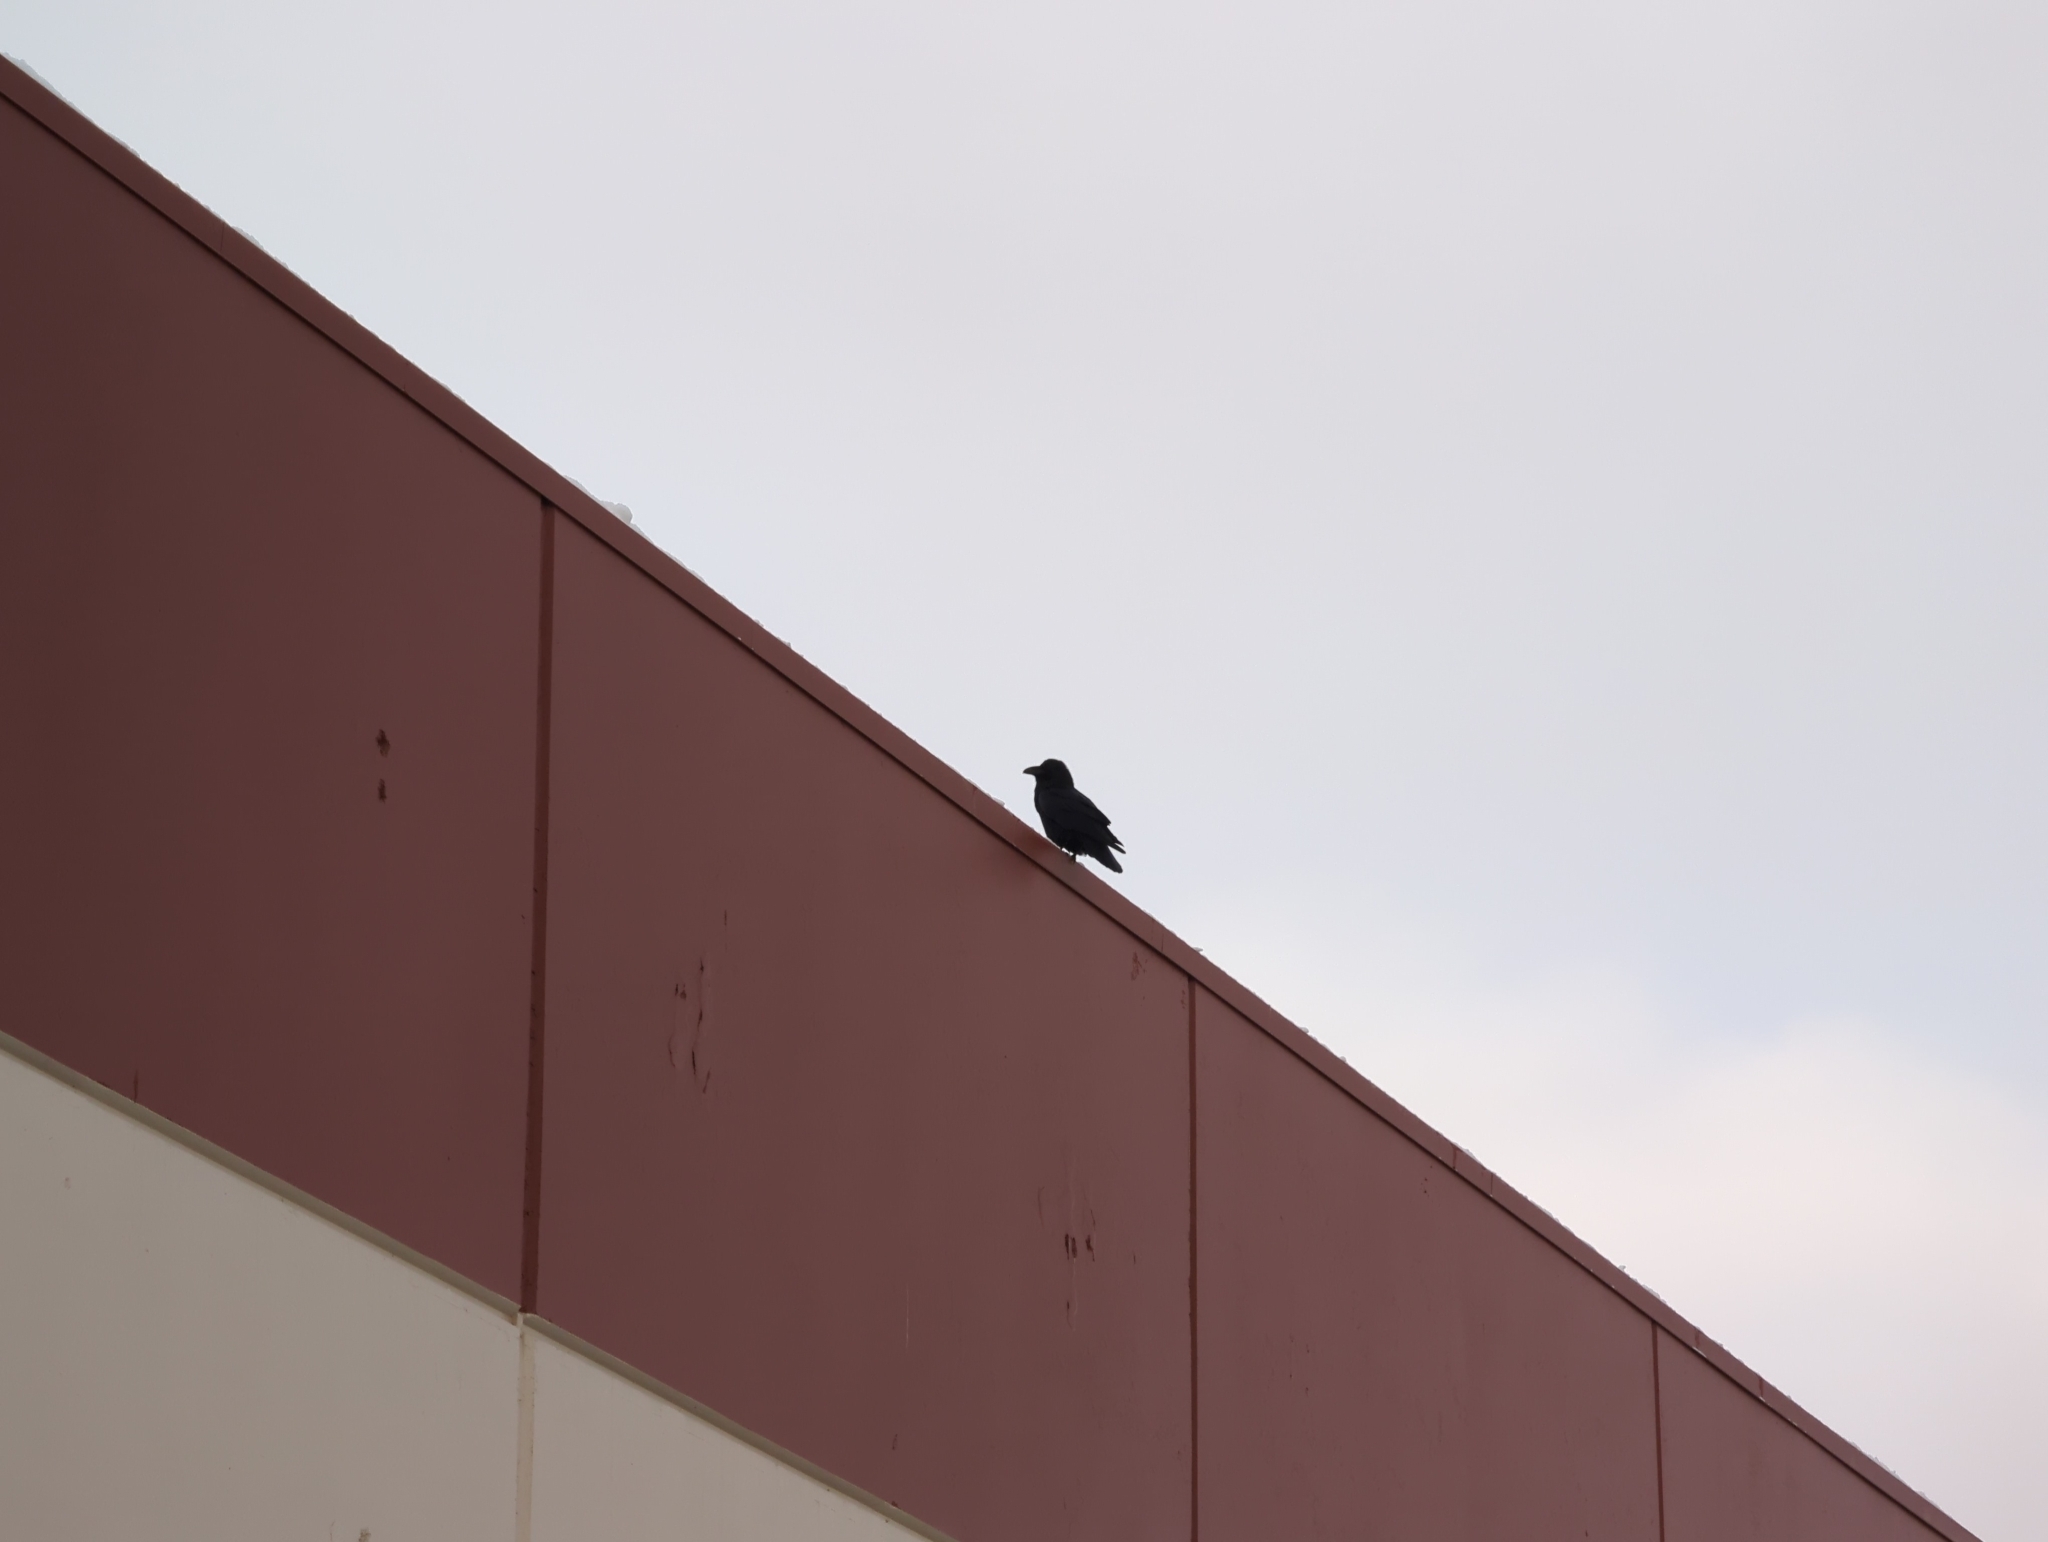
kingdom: Animalia
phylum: Chordata
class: Aves
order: Passeriformes
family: Corvidae
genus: Corvus
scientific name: Corvus corax
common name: Common raven
